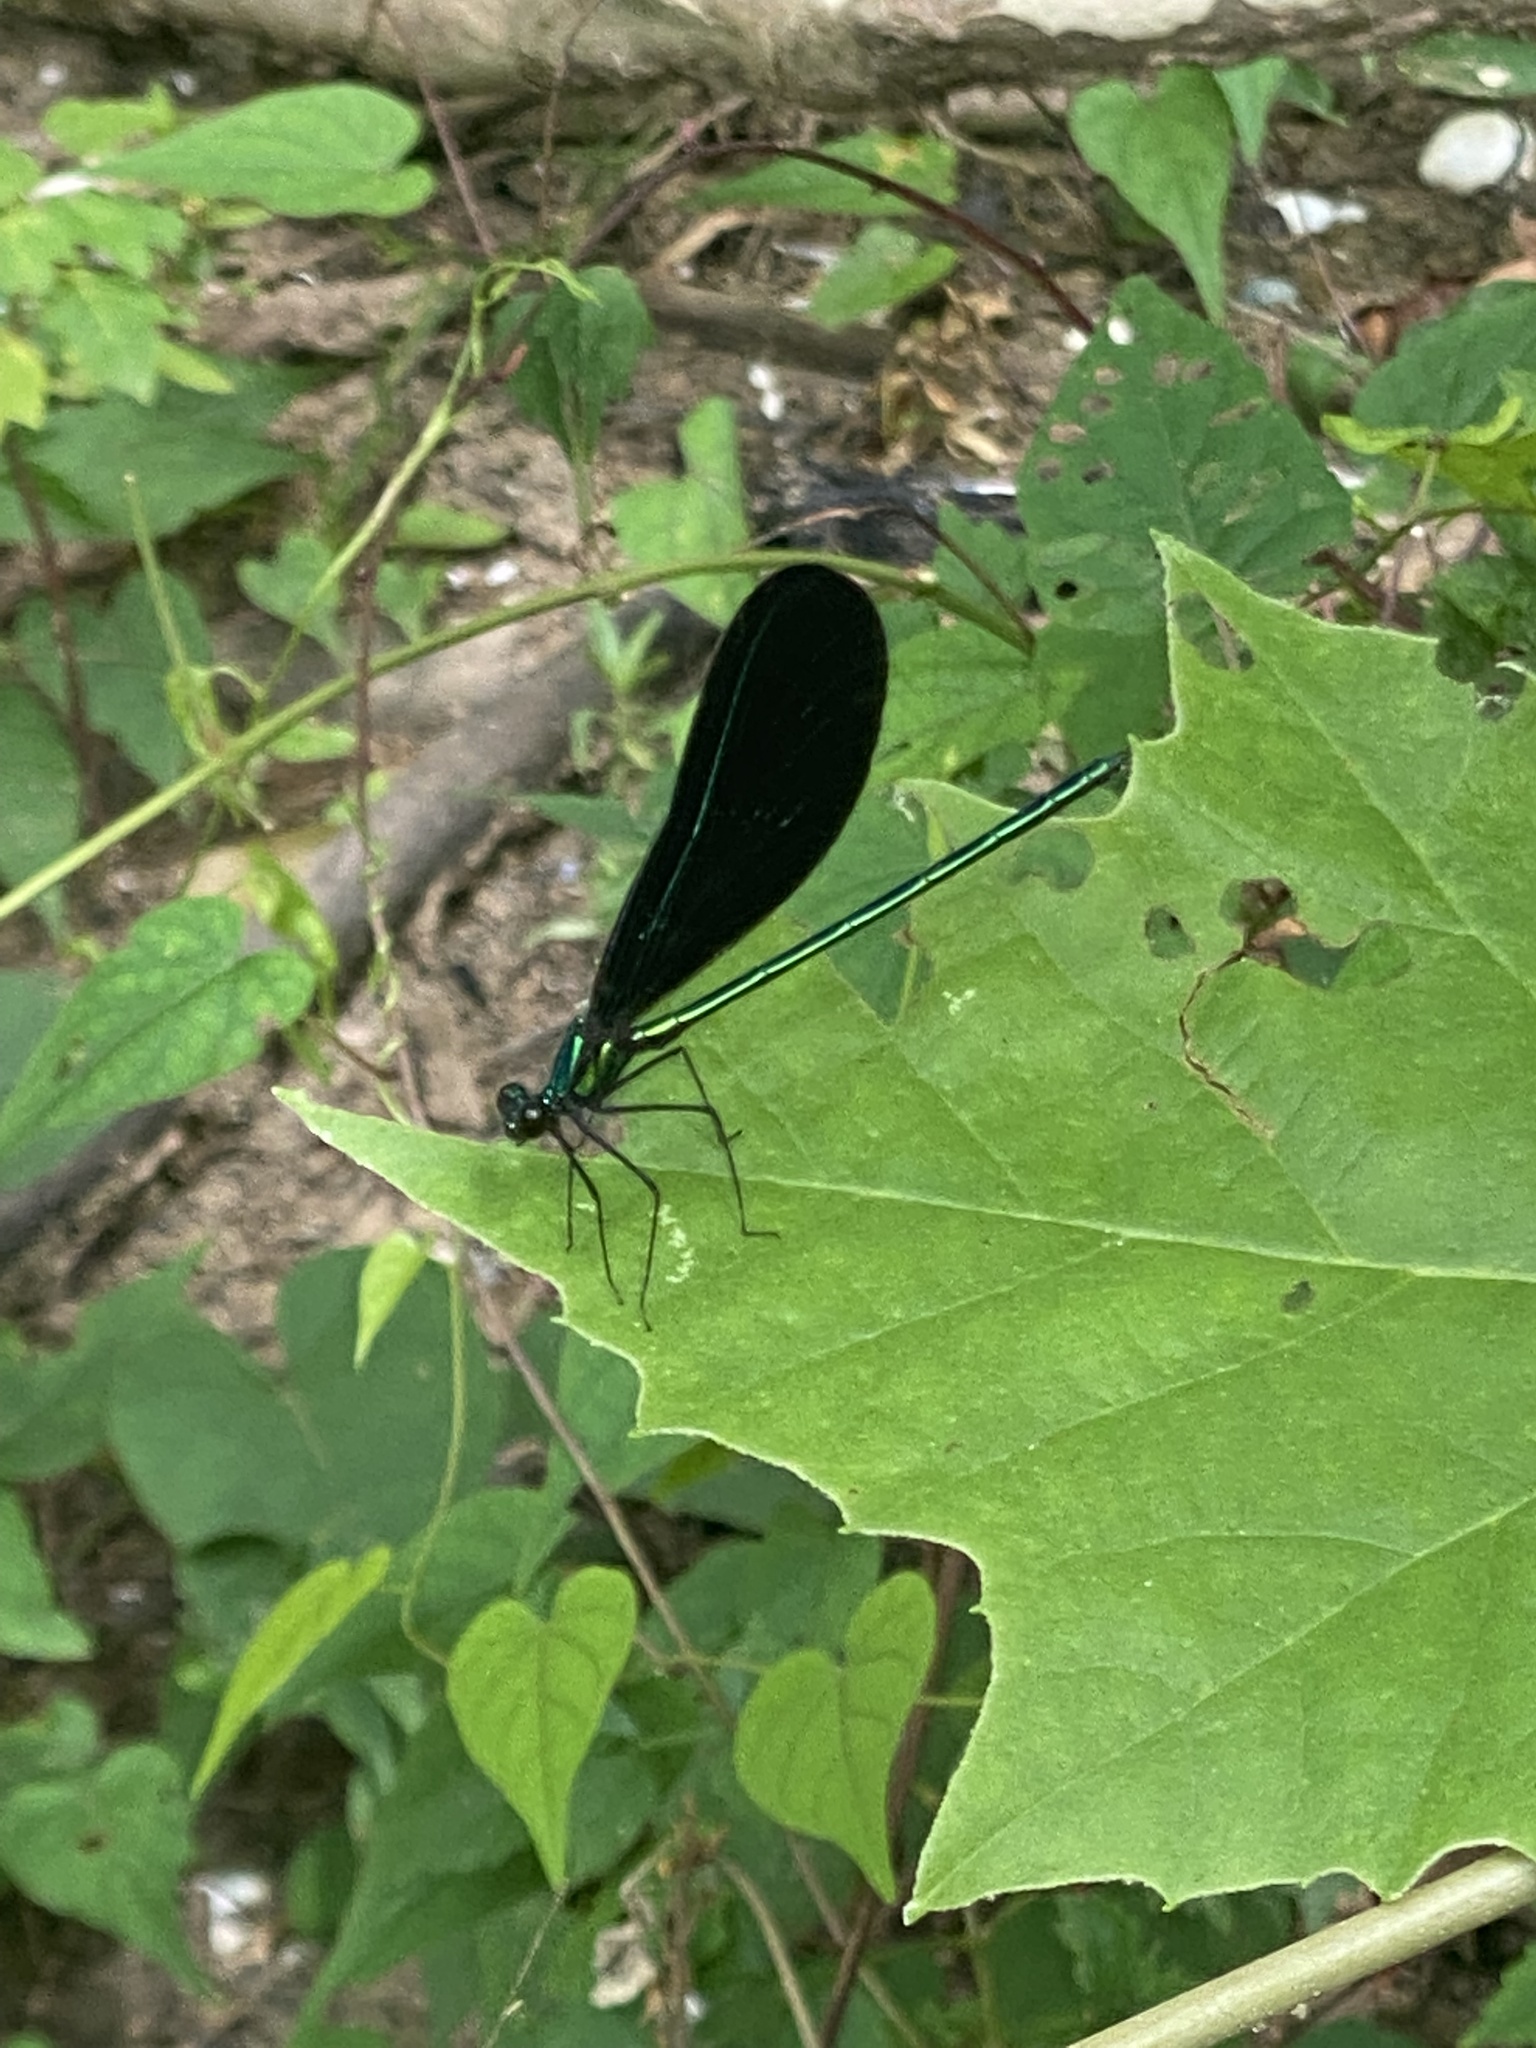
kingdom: Animalia
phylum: Arthropoda
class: Insecta
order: Odonata
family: Calopterygidae
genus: Calopteryx
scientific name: Calopteryx maculata
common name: Ebony jewelwing
